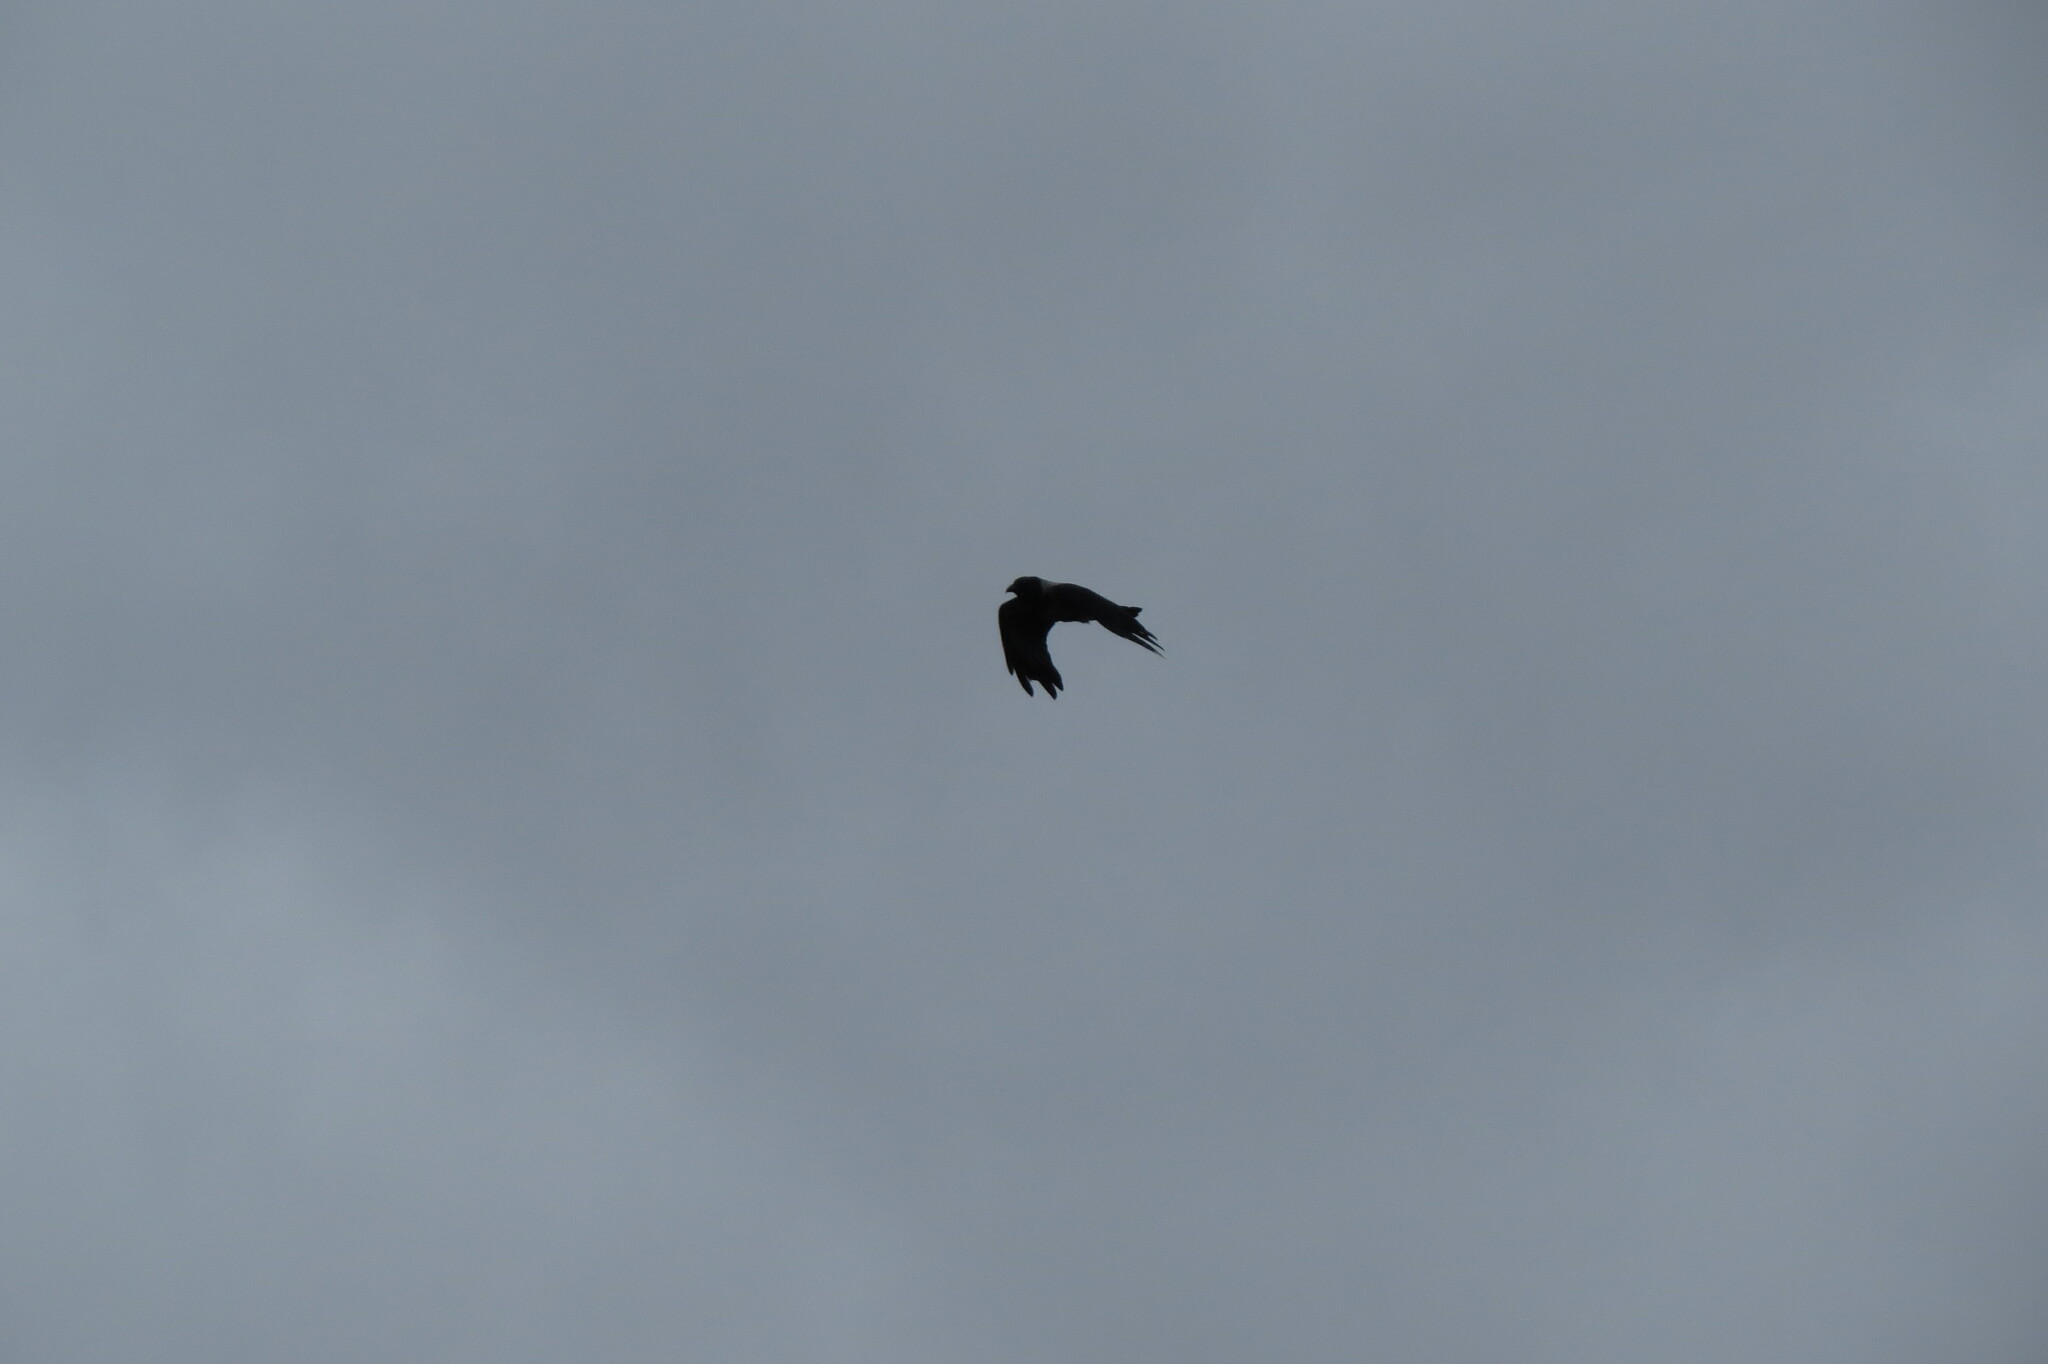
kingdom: Animalia
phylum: Chordata
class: Aves
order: Passeriformes
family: Corvidae
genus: Corvus
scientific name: Corvus cornix
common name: Hooded crow
